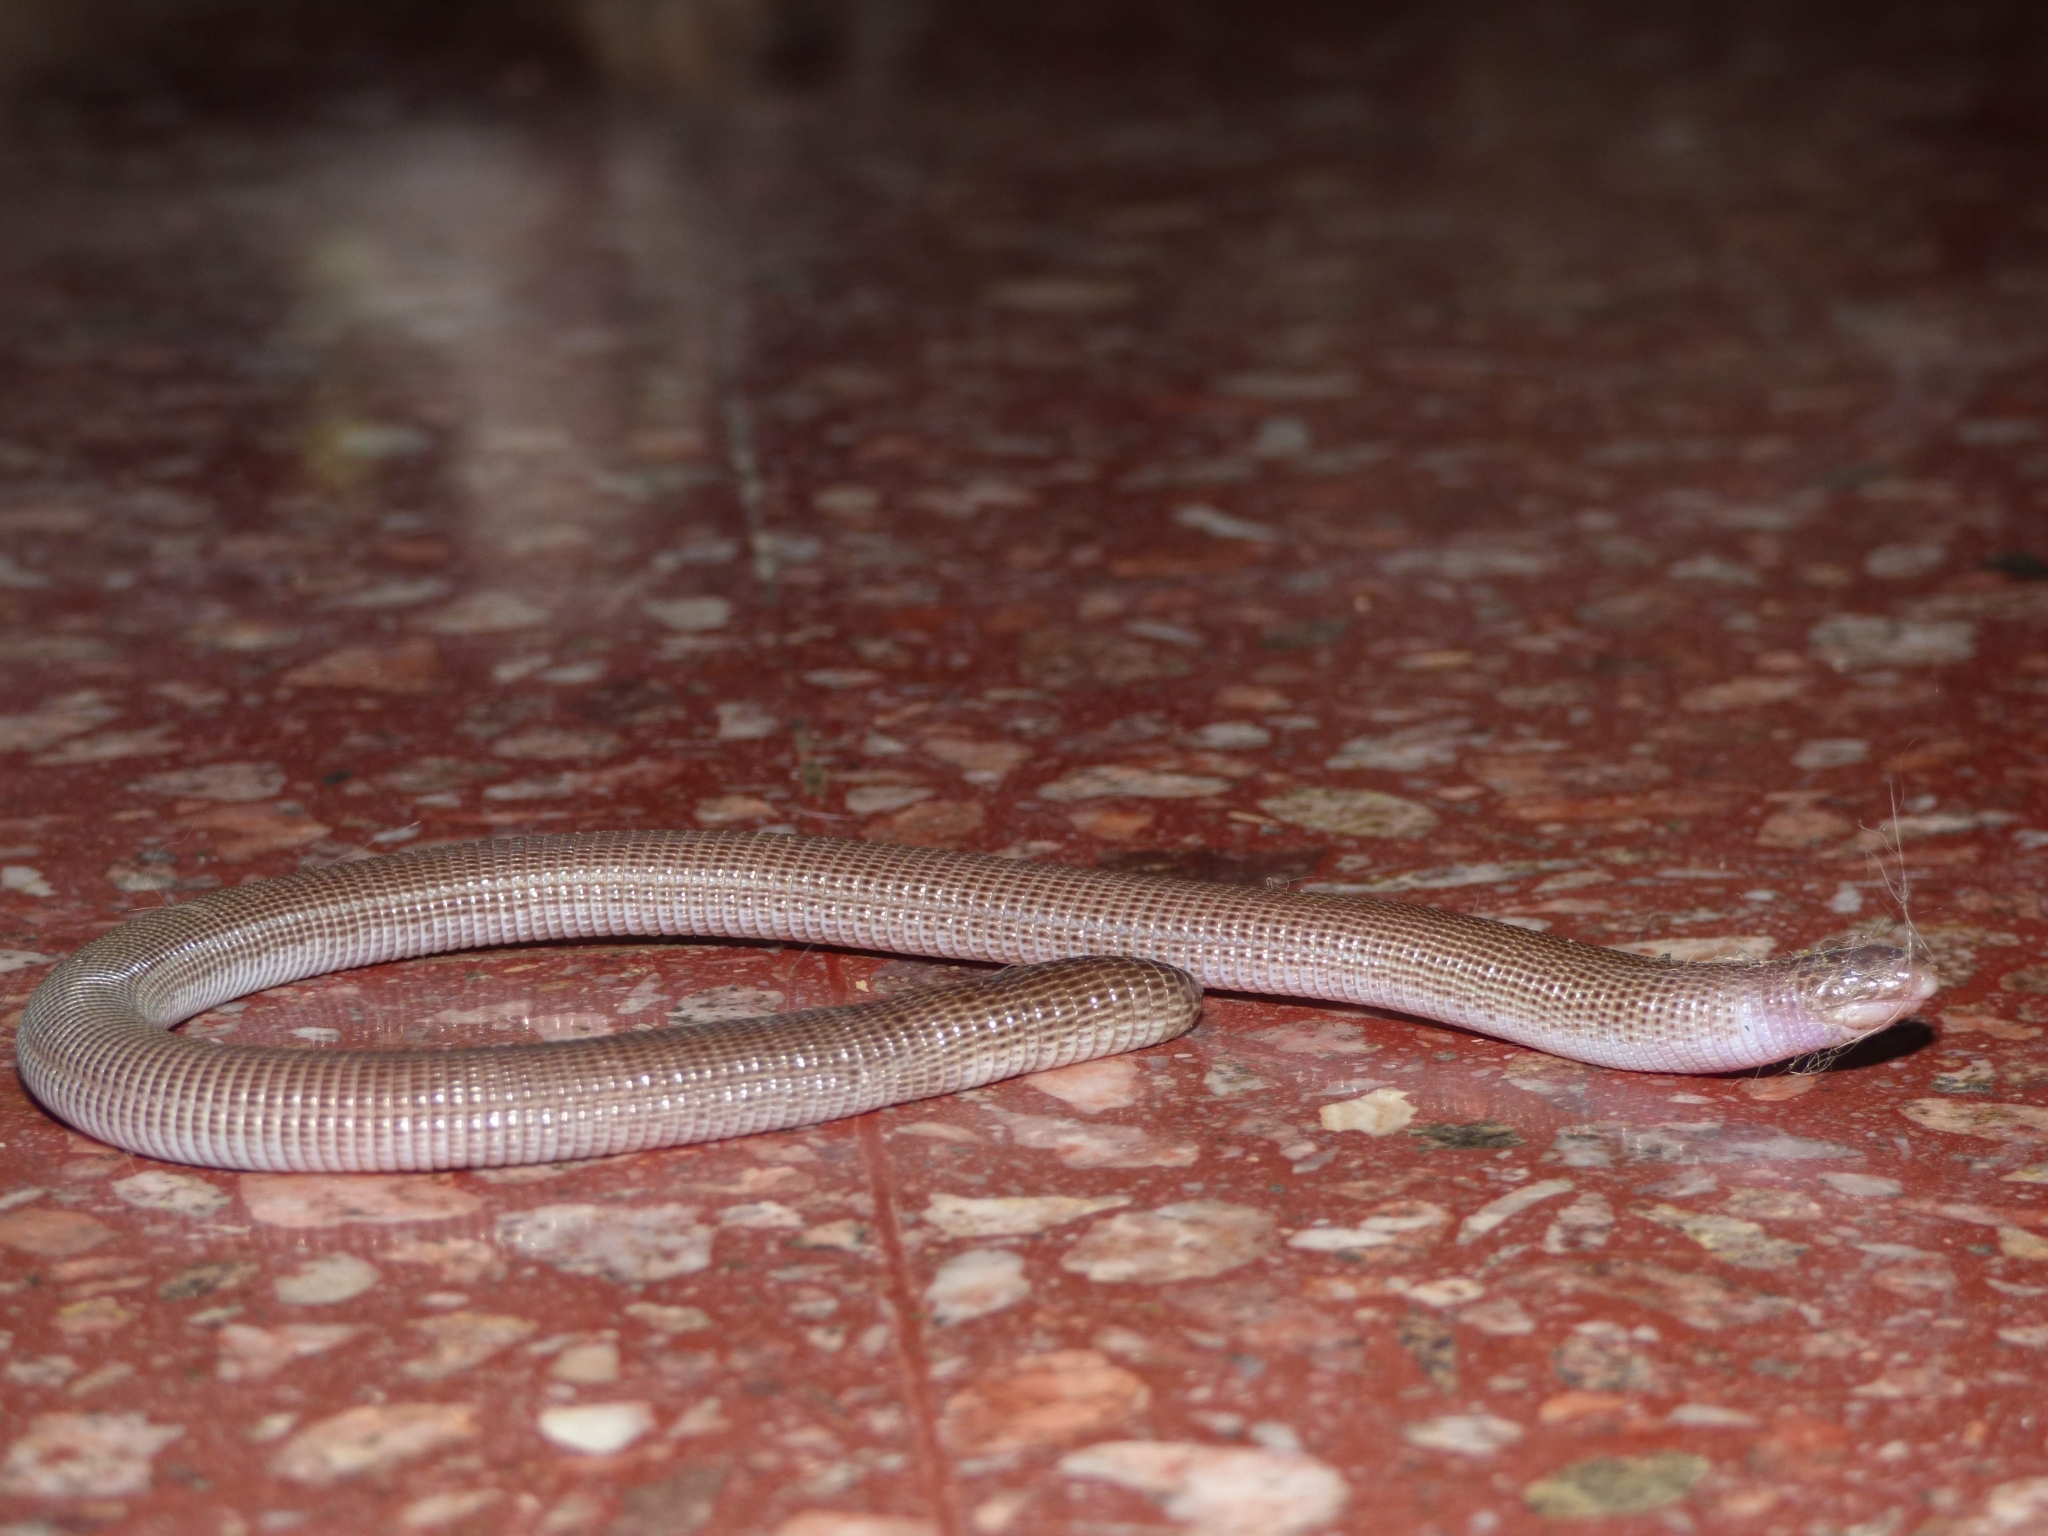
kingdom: Animalia
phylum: Chordata
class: Squamata
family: Amphisbaenidae
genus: Amphisbaena
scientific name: Amphisbaena darwinii
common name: Darwin's ringed worm lizard
